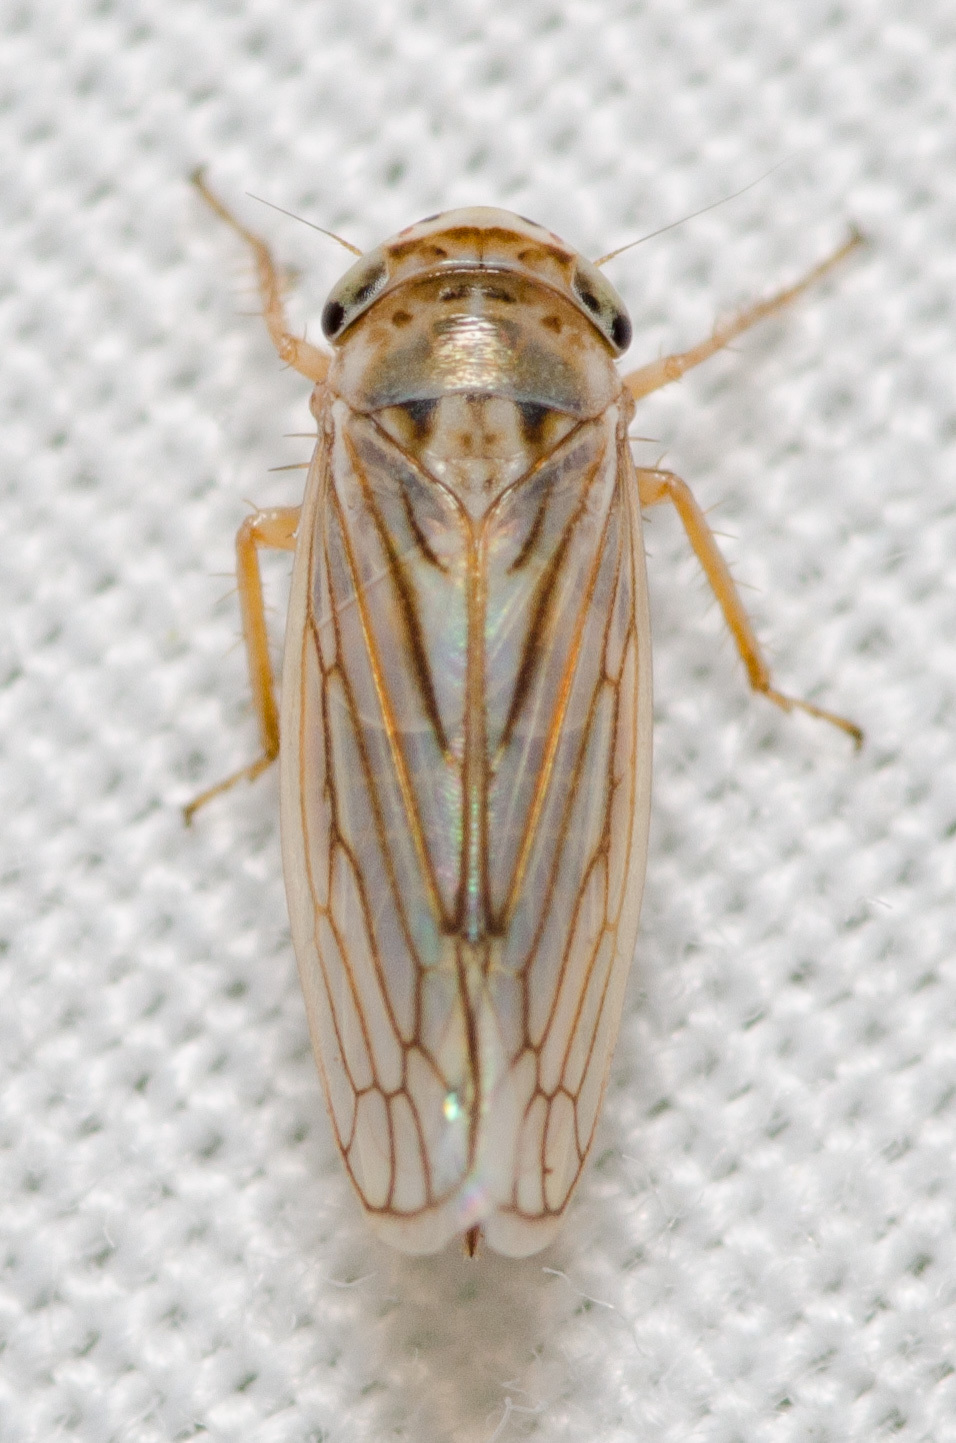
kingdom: Animalia
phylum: Arthropoda
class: Insecta
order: Hemiptera
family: Cicadellidae
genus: Exitianus
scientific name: Exitianus exitiosus
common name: Gray lawn leafhopper
